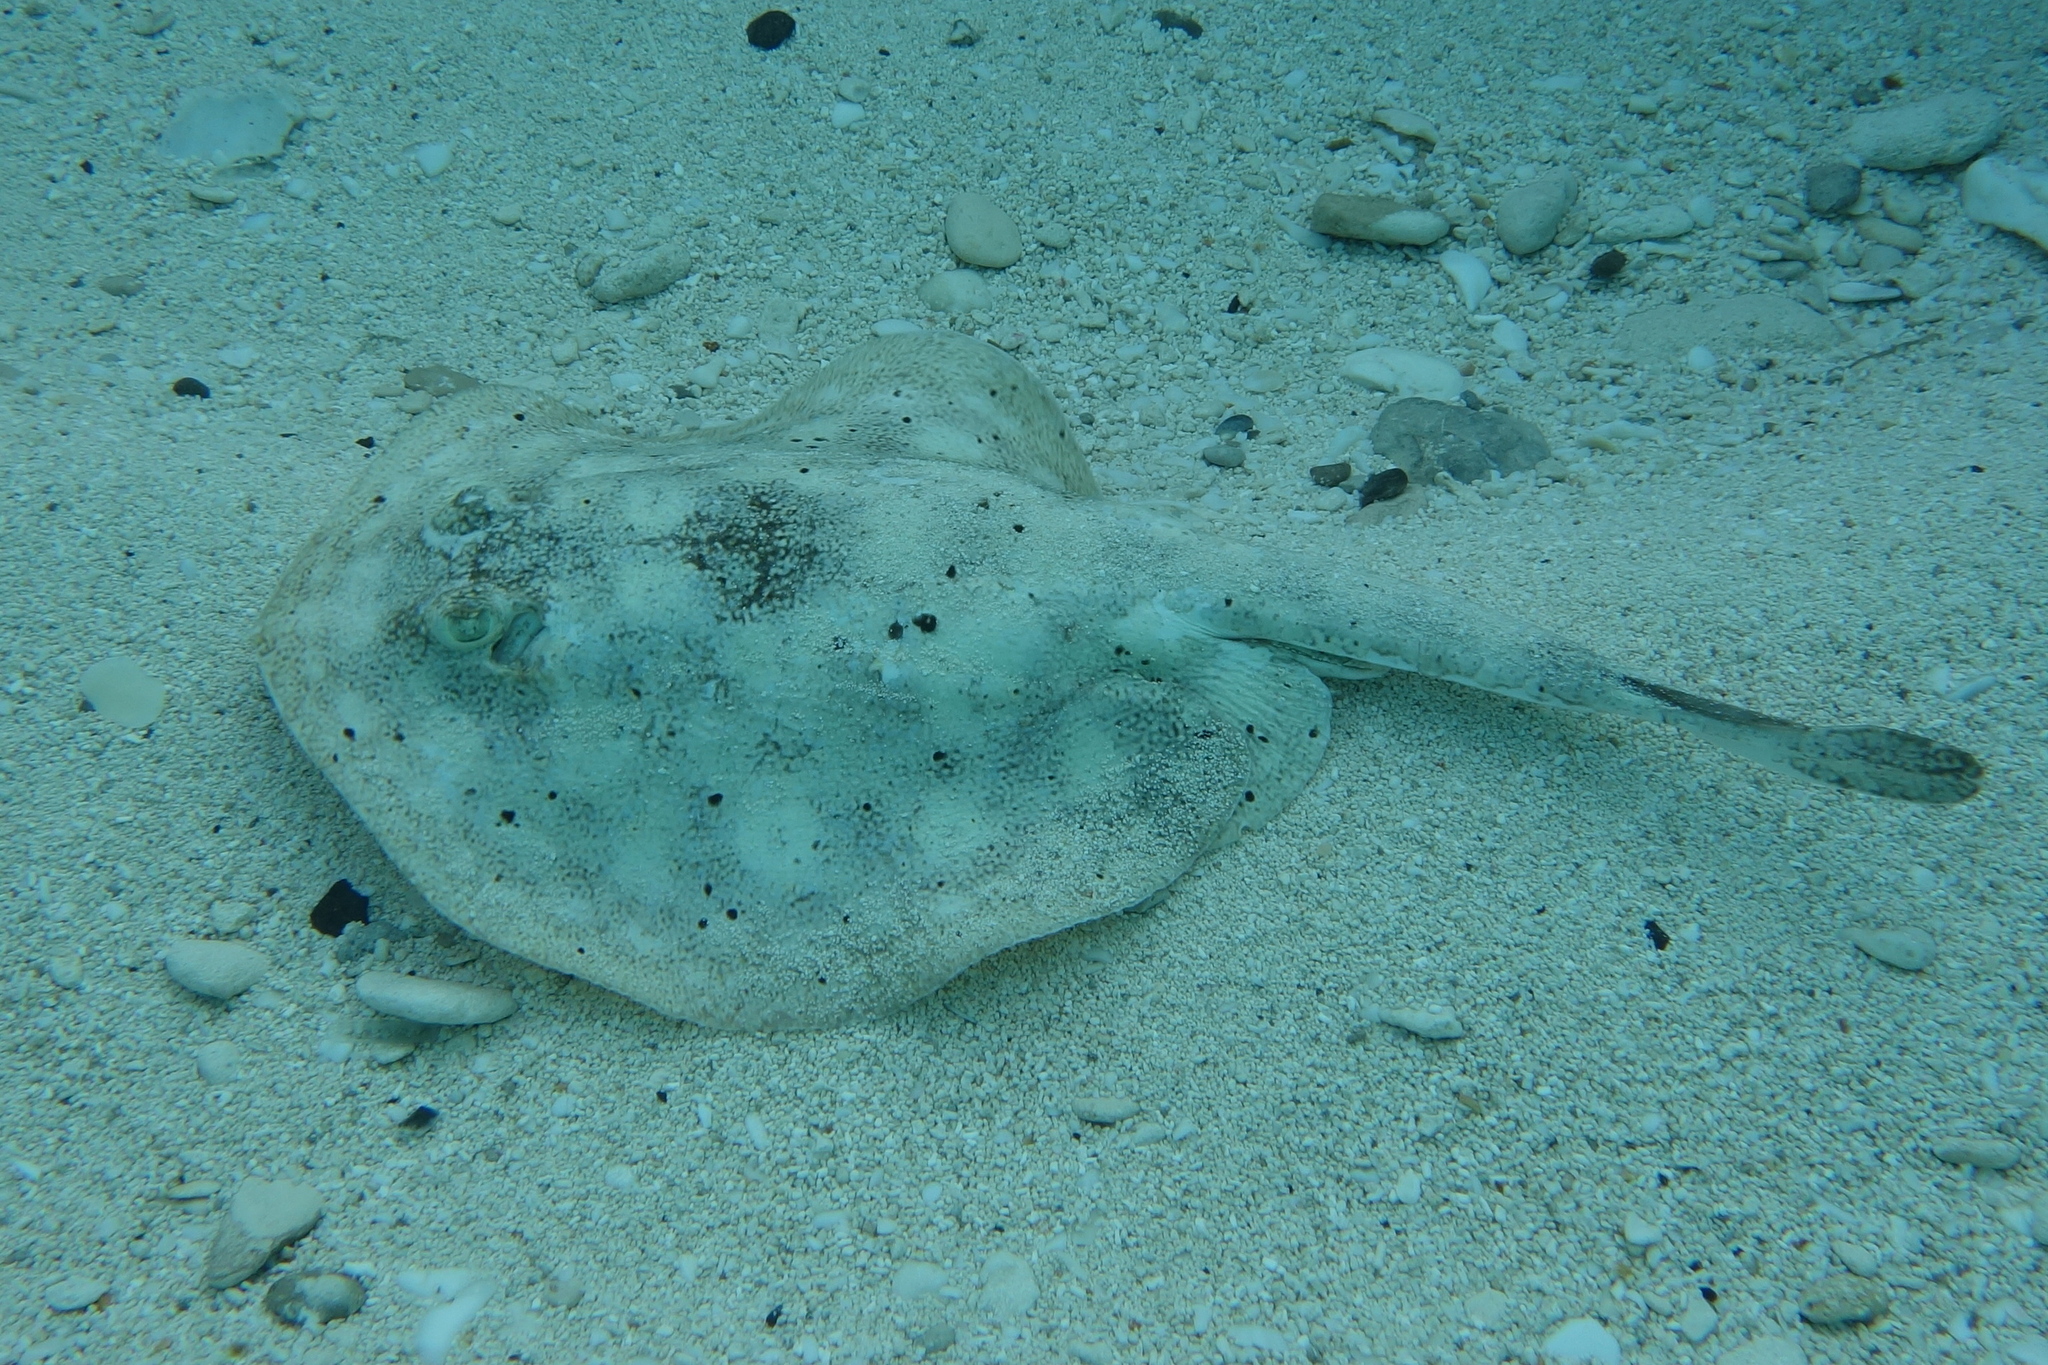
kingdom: Animalia
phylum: Chordata
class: Elasmobranchii
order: Myliobatiformes
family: Urotrygonidae
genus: Urobatis
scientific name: Urobatis jamaicensis
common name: Yellow stingray
